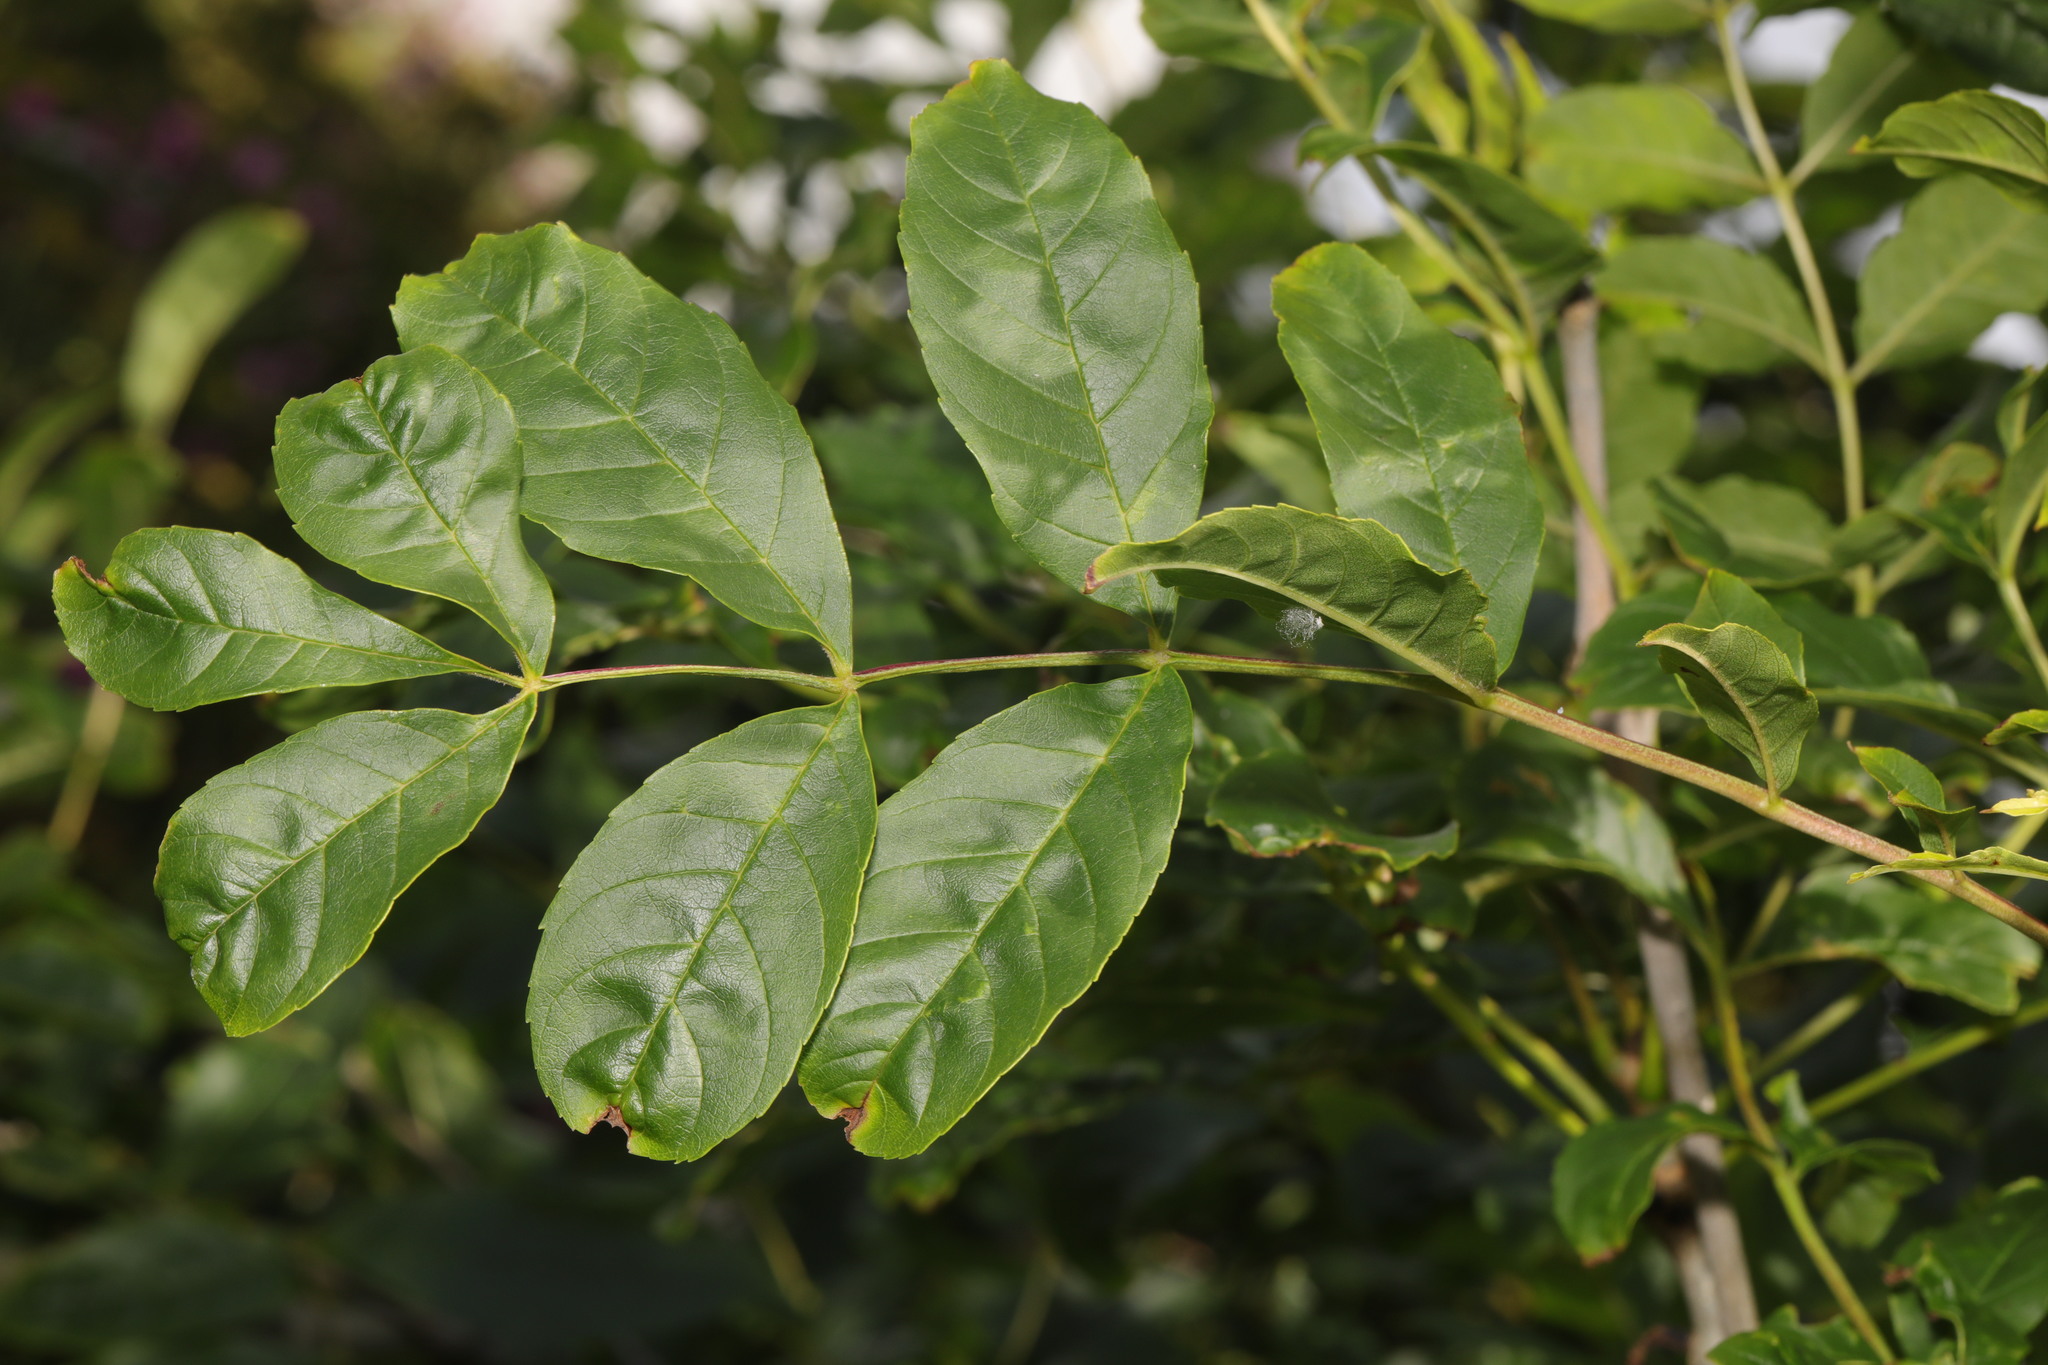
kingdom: Plantae
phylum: Tracheophyta
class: Magnoliopsida
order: Lamiales
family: Oleaceae
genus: Fraxinus
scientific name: Fraxinus excelsior
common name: European ash
